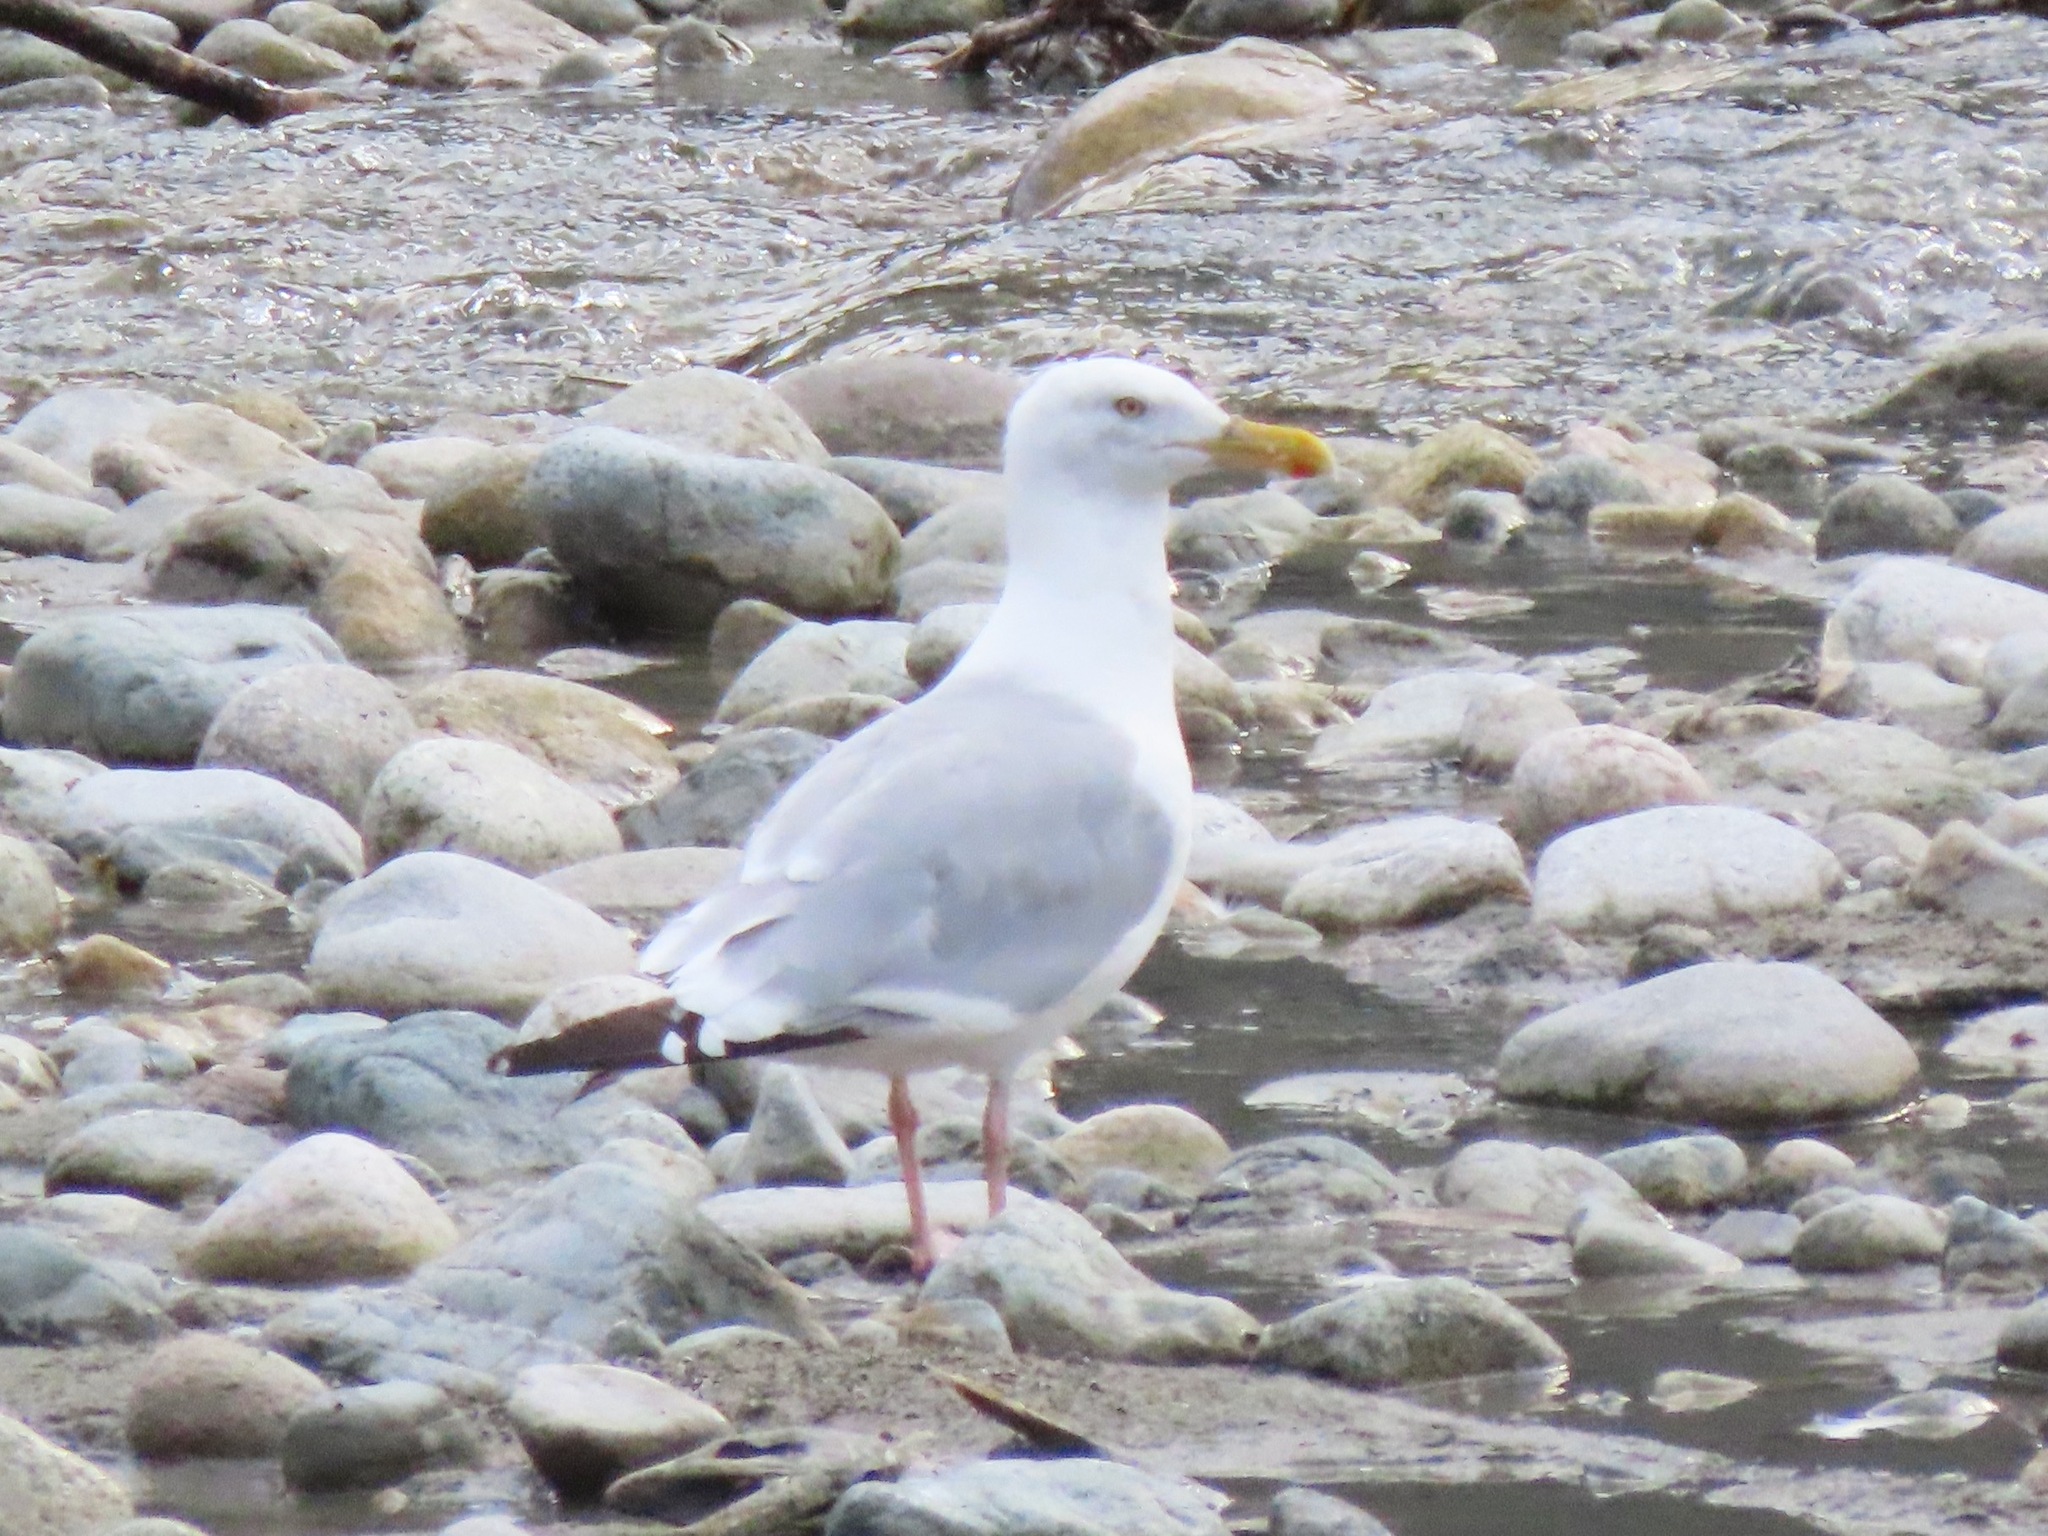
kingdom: Animalia
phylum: Chordata
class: Aves
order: Charadriiformes
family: Laridae
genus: Larus
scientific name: Larus argentatus
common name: Herring gull
